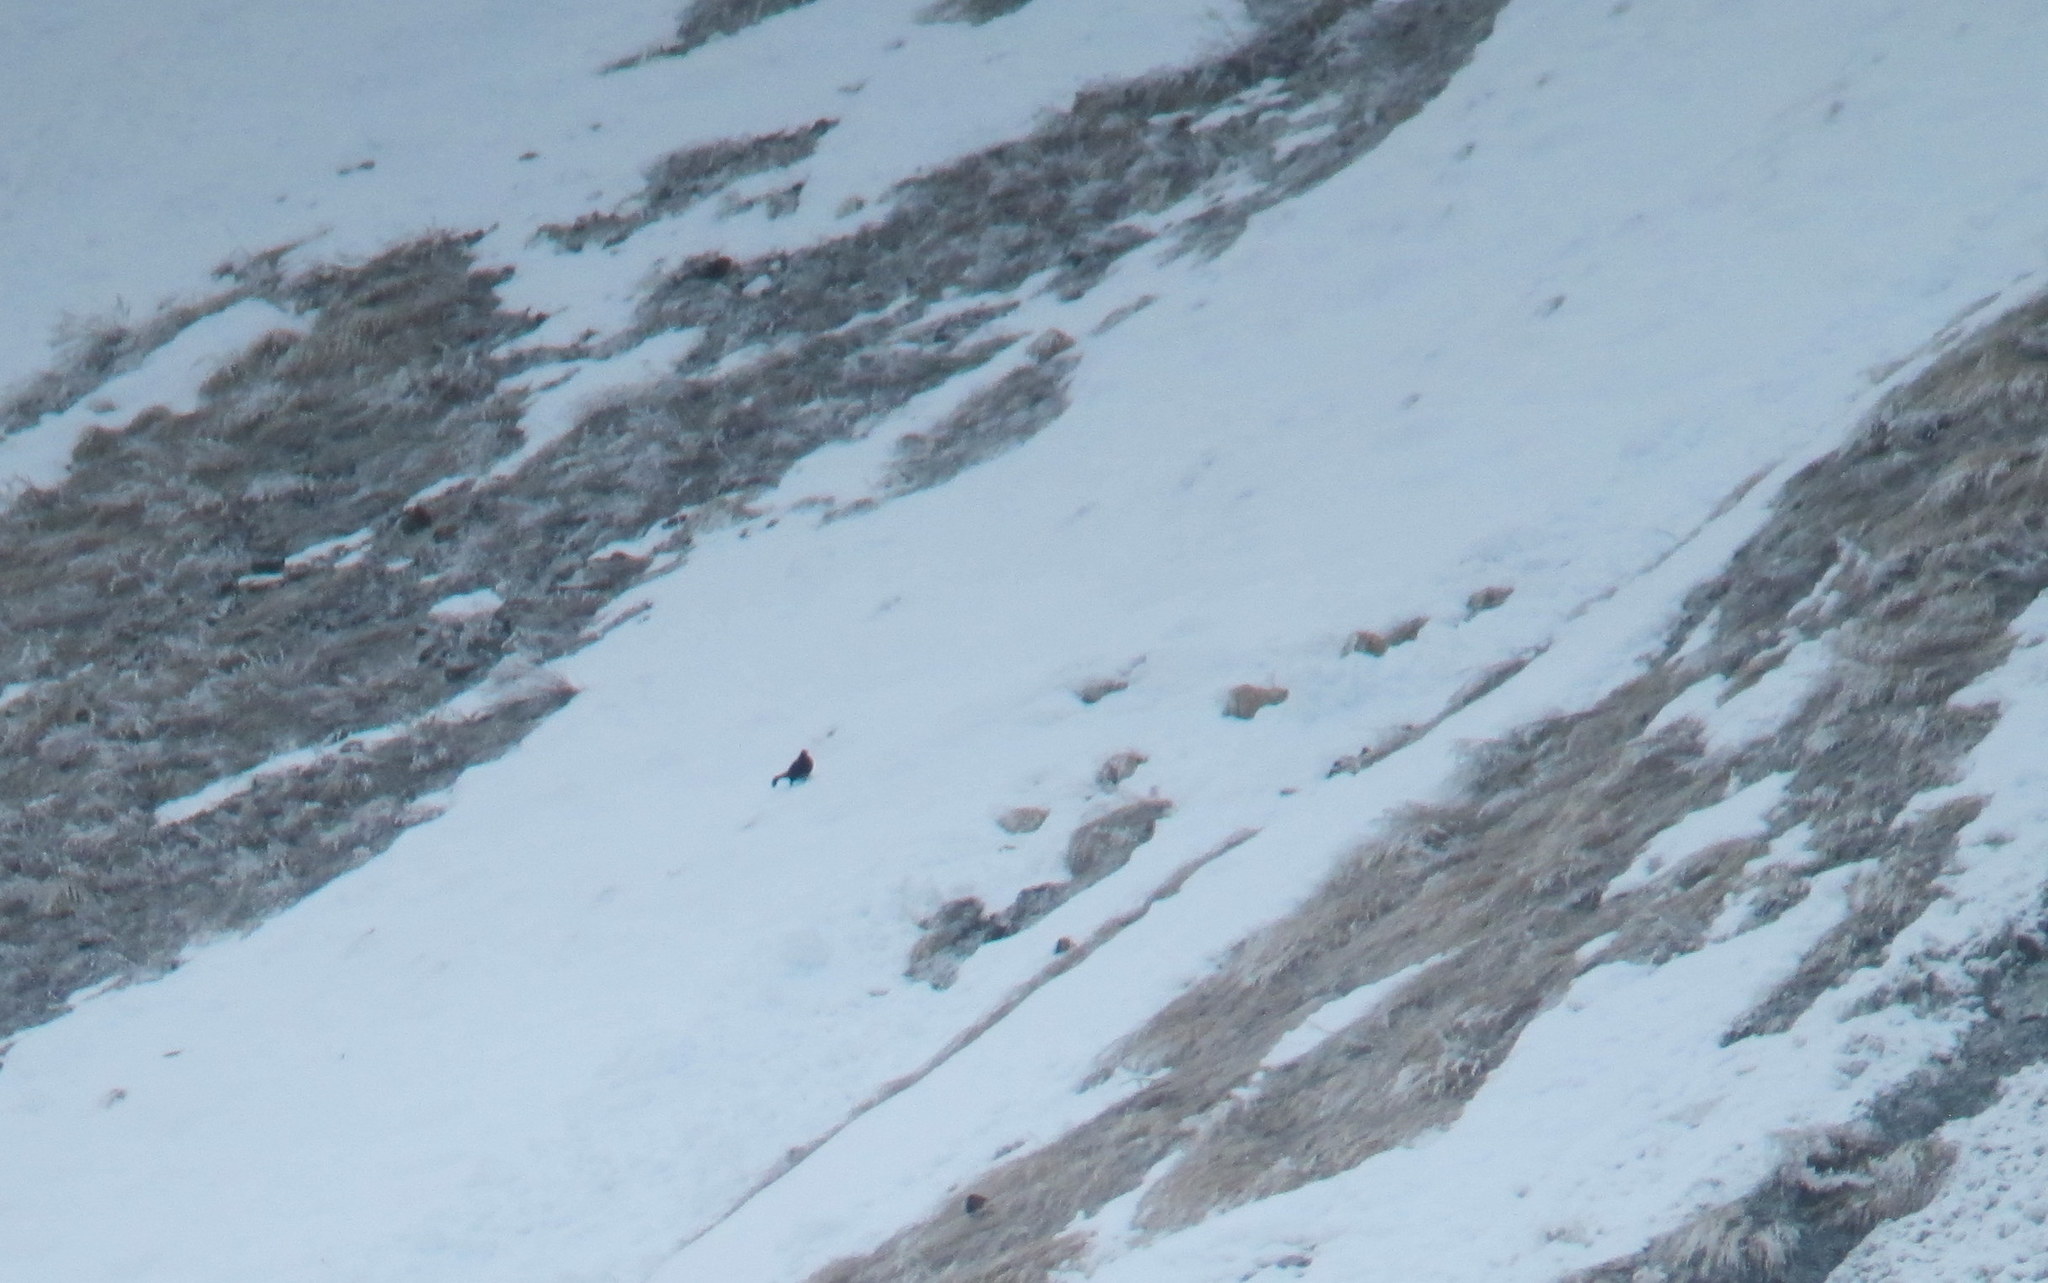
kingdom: Animalia
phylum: Chordata
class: Aves
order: Galliformes
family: Phasianidae
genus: Lyrurus
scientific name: Lyrurus mlokosiewiczi
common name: Caucasian grouse
